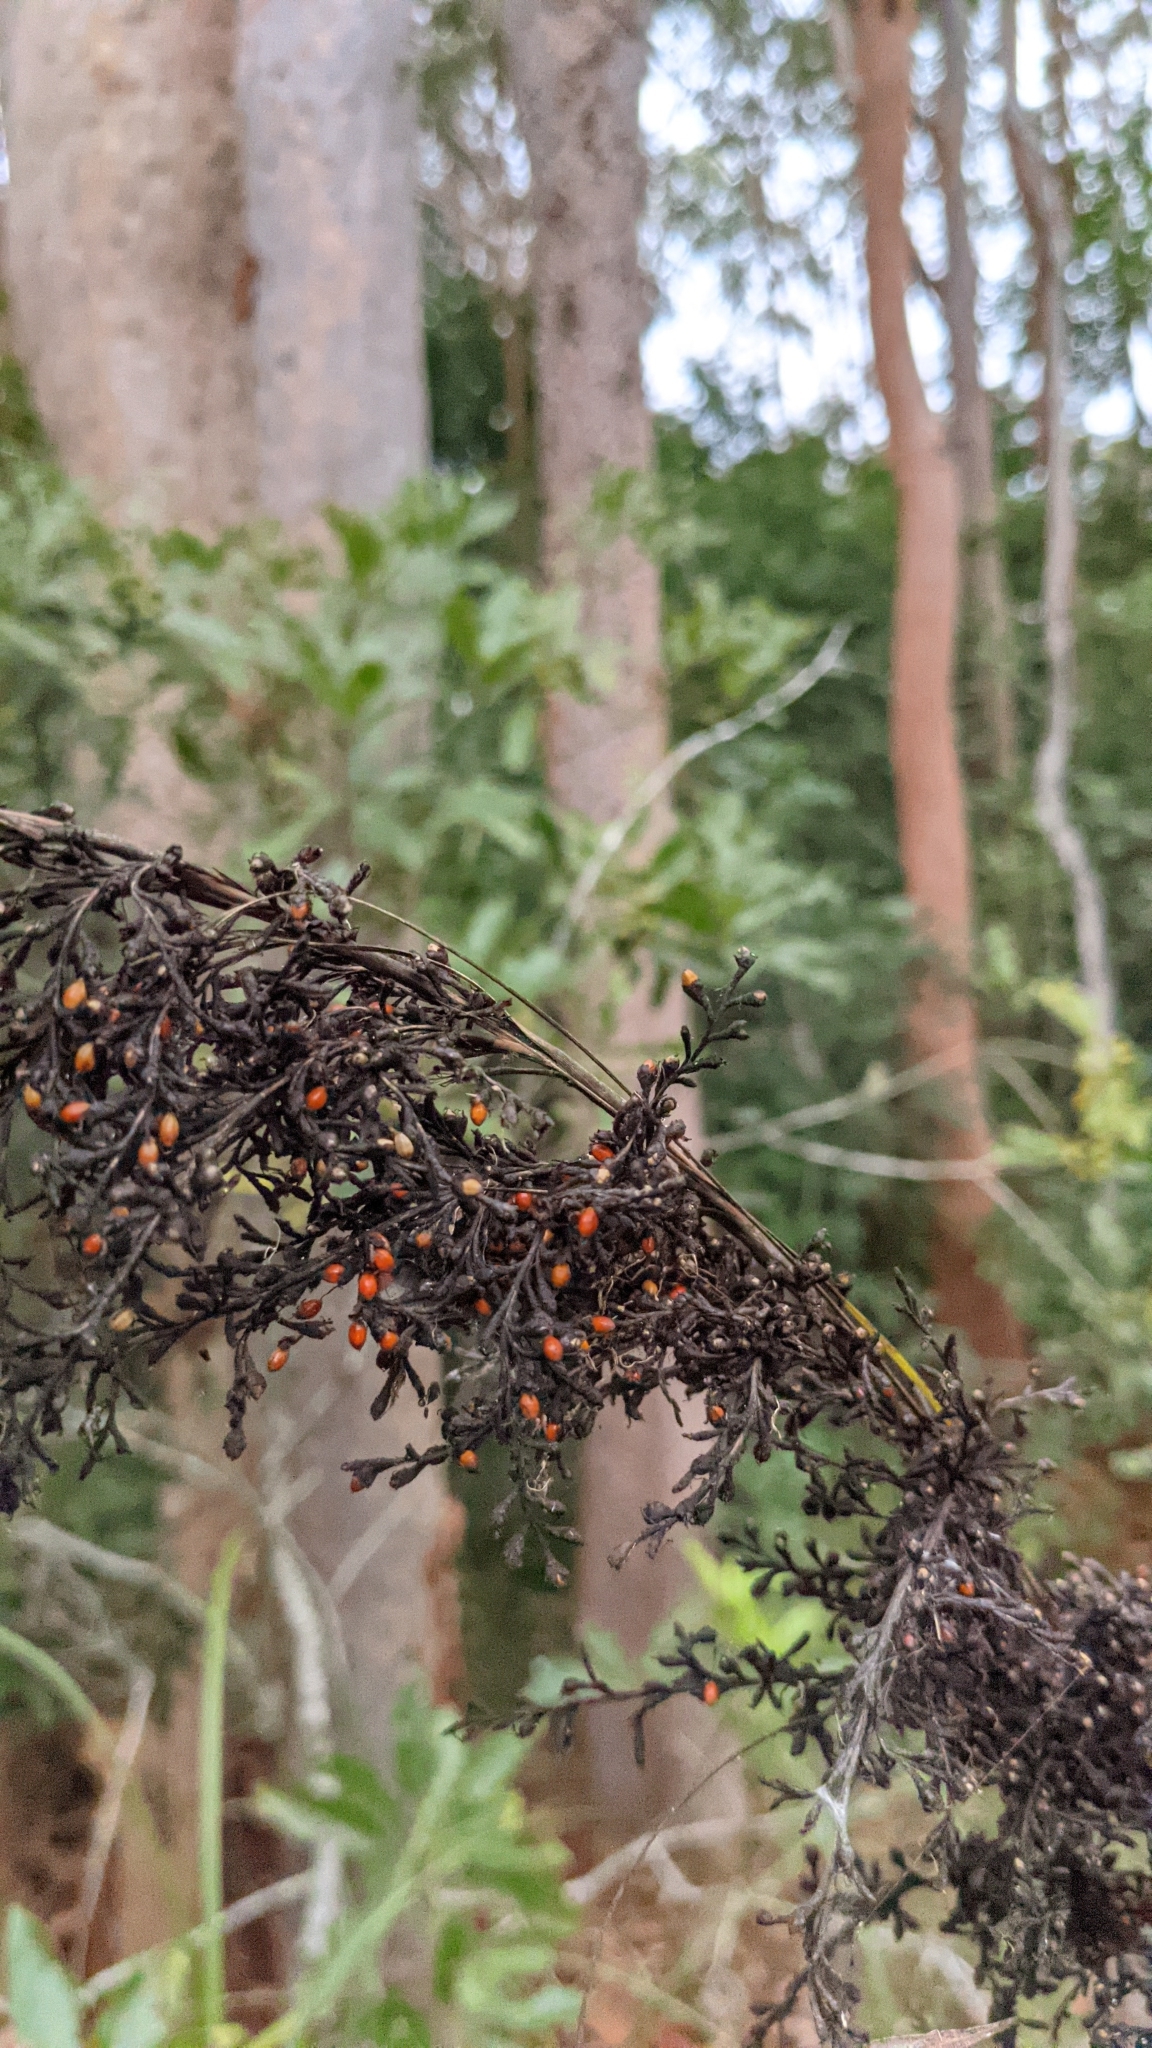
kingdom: Plantae
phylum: Tracheophyta
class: Liliopsida
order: Poales
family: Cyperaceae
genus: Gahnia
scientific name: Gahnia clarkei
